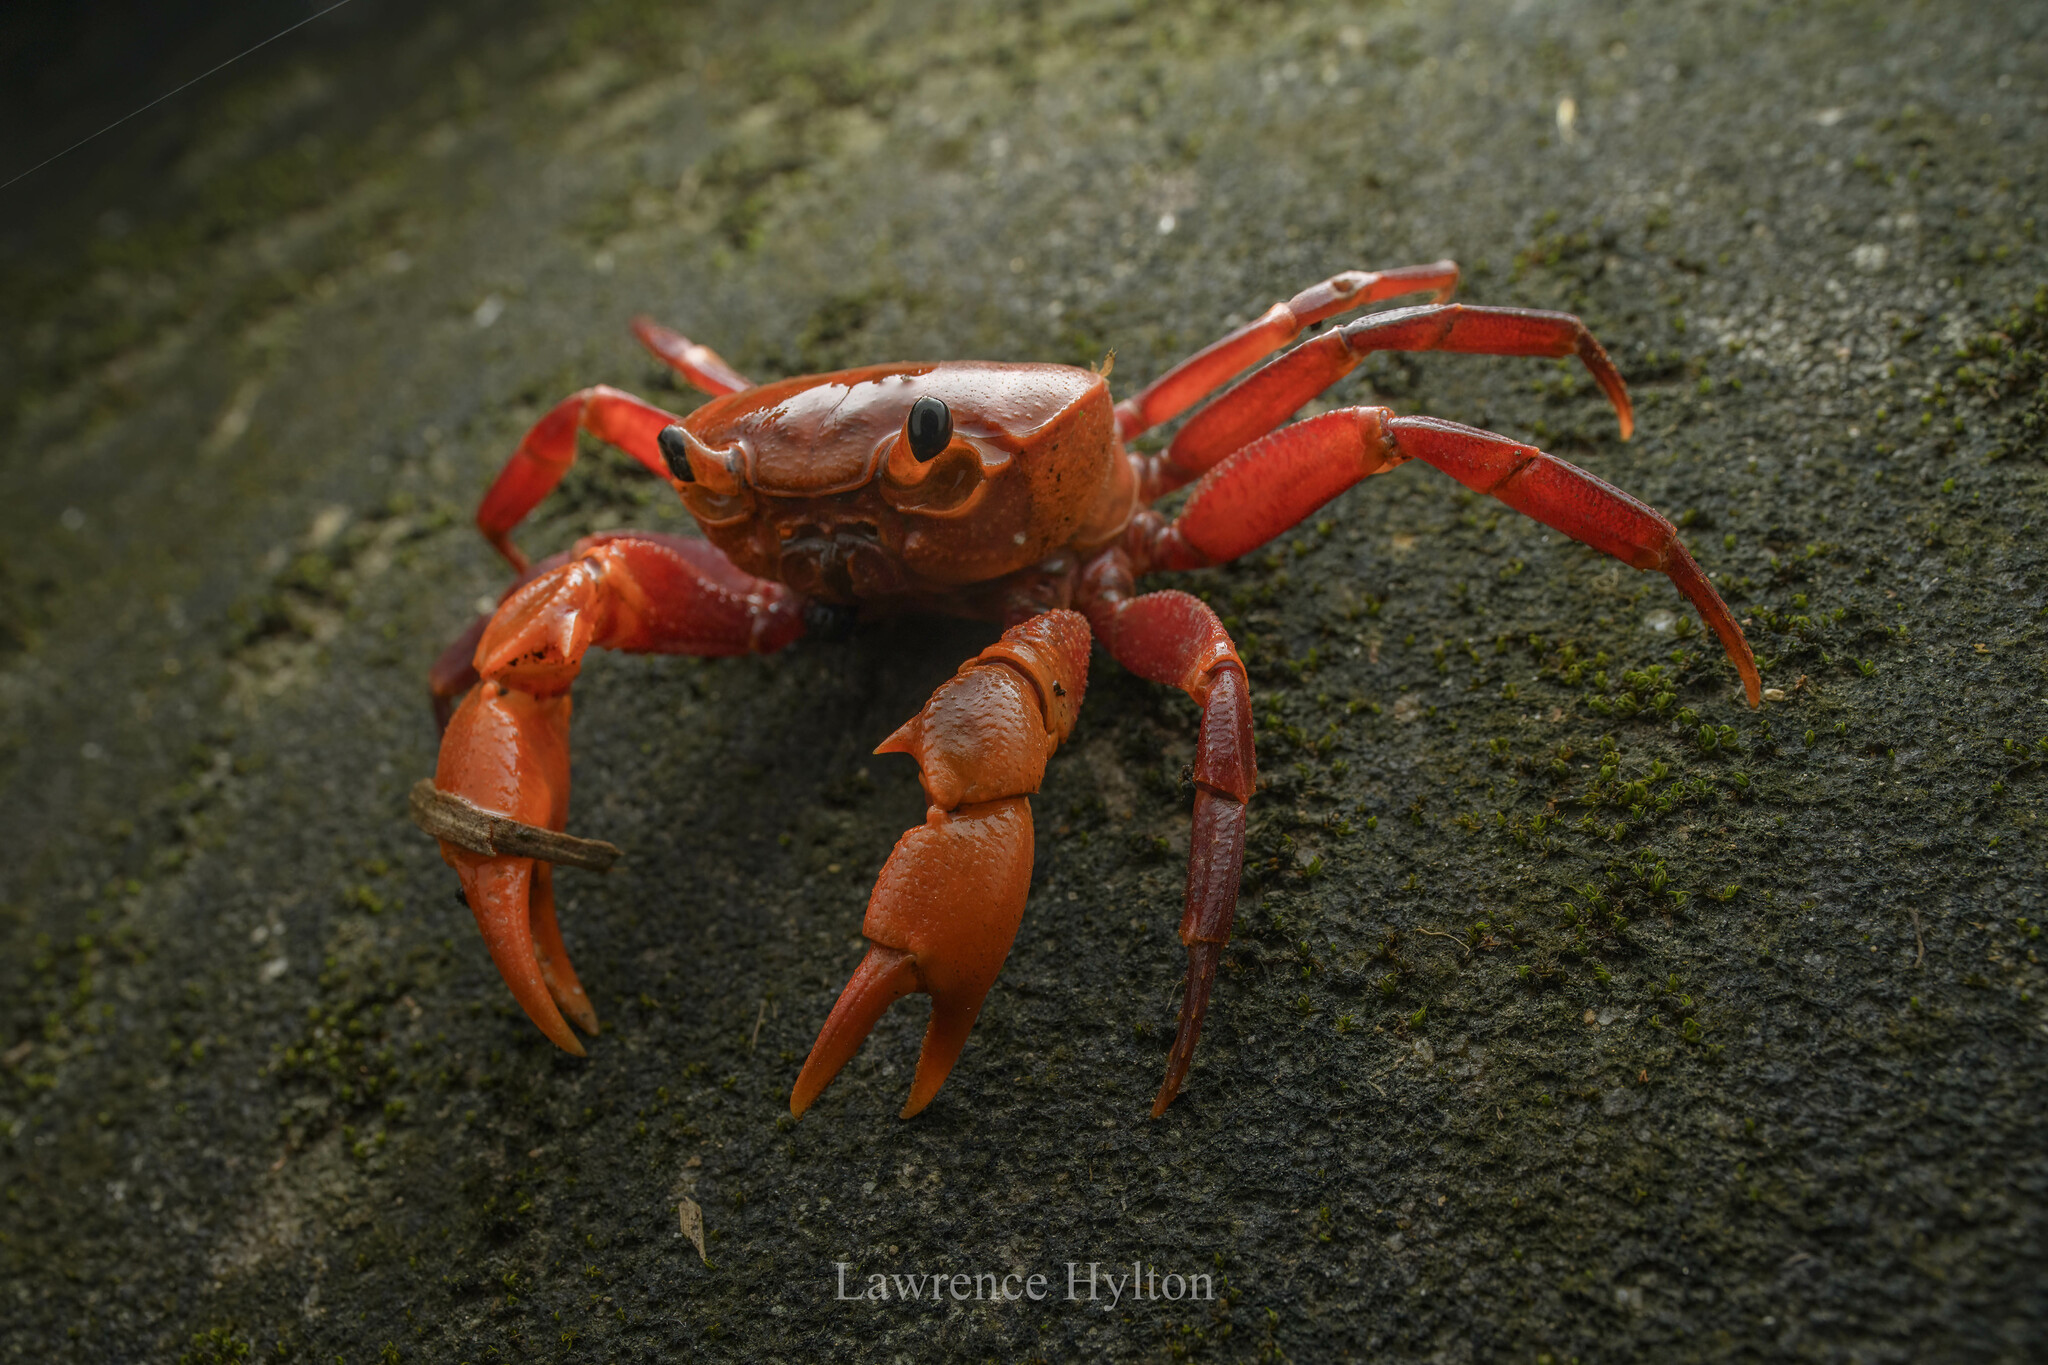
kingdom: Animalia
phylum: Arthropoda
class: Malacostraca
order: Decapoda
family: Potamidae
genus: Nanhaipotamon
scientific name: Nanhaipotamon hongkongense
